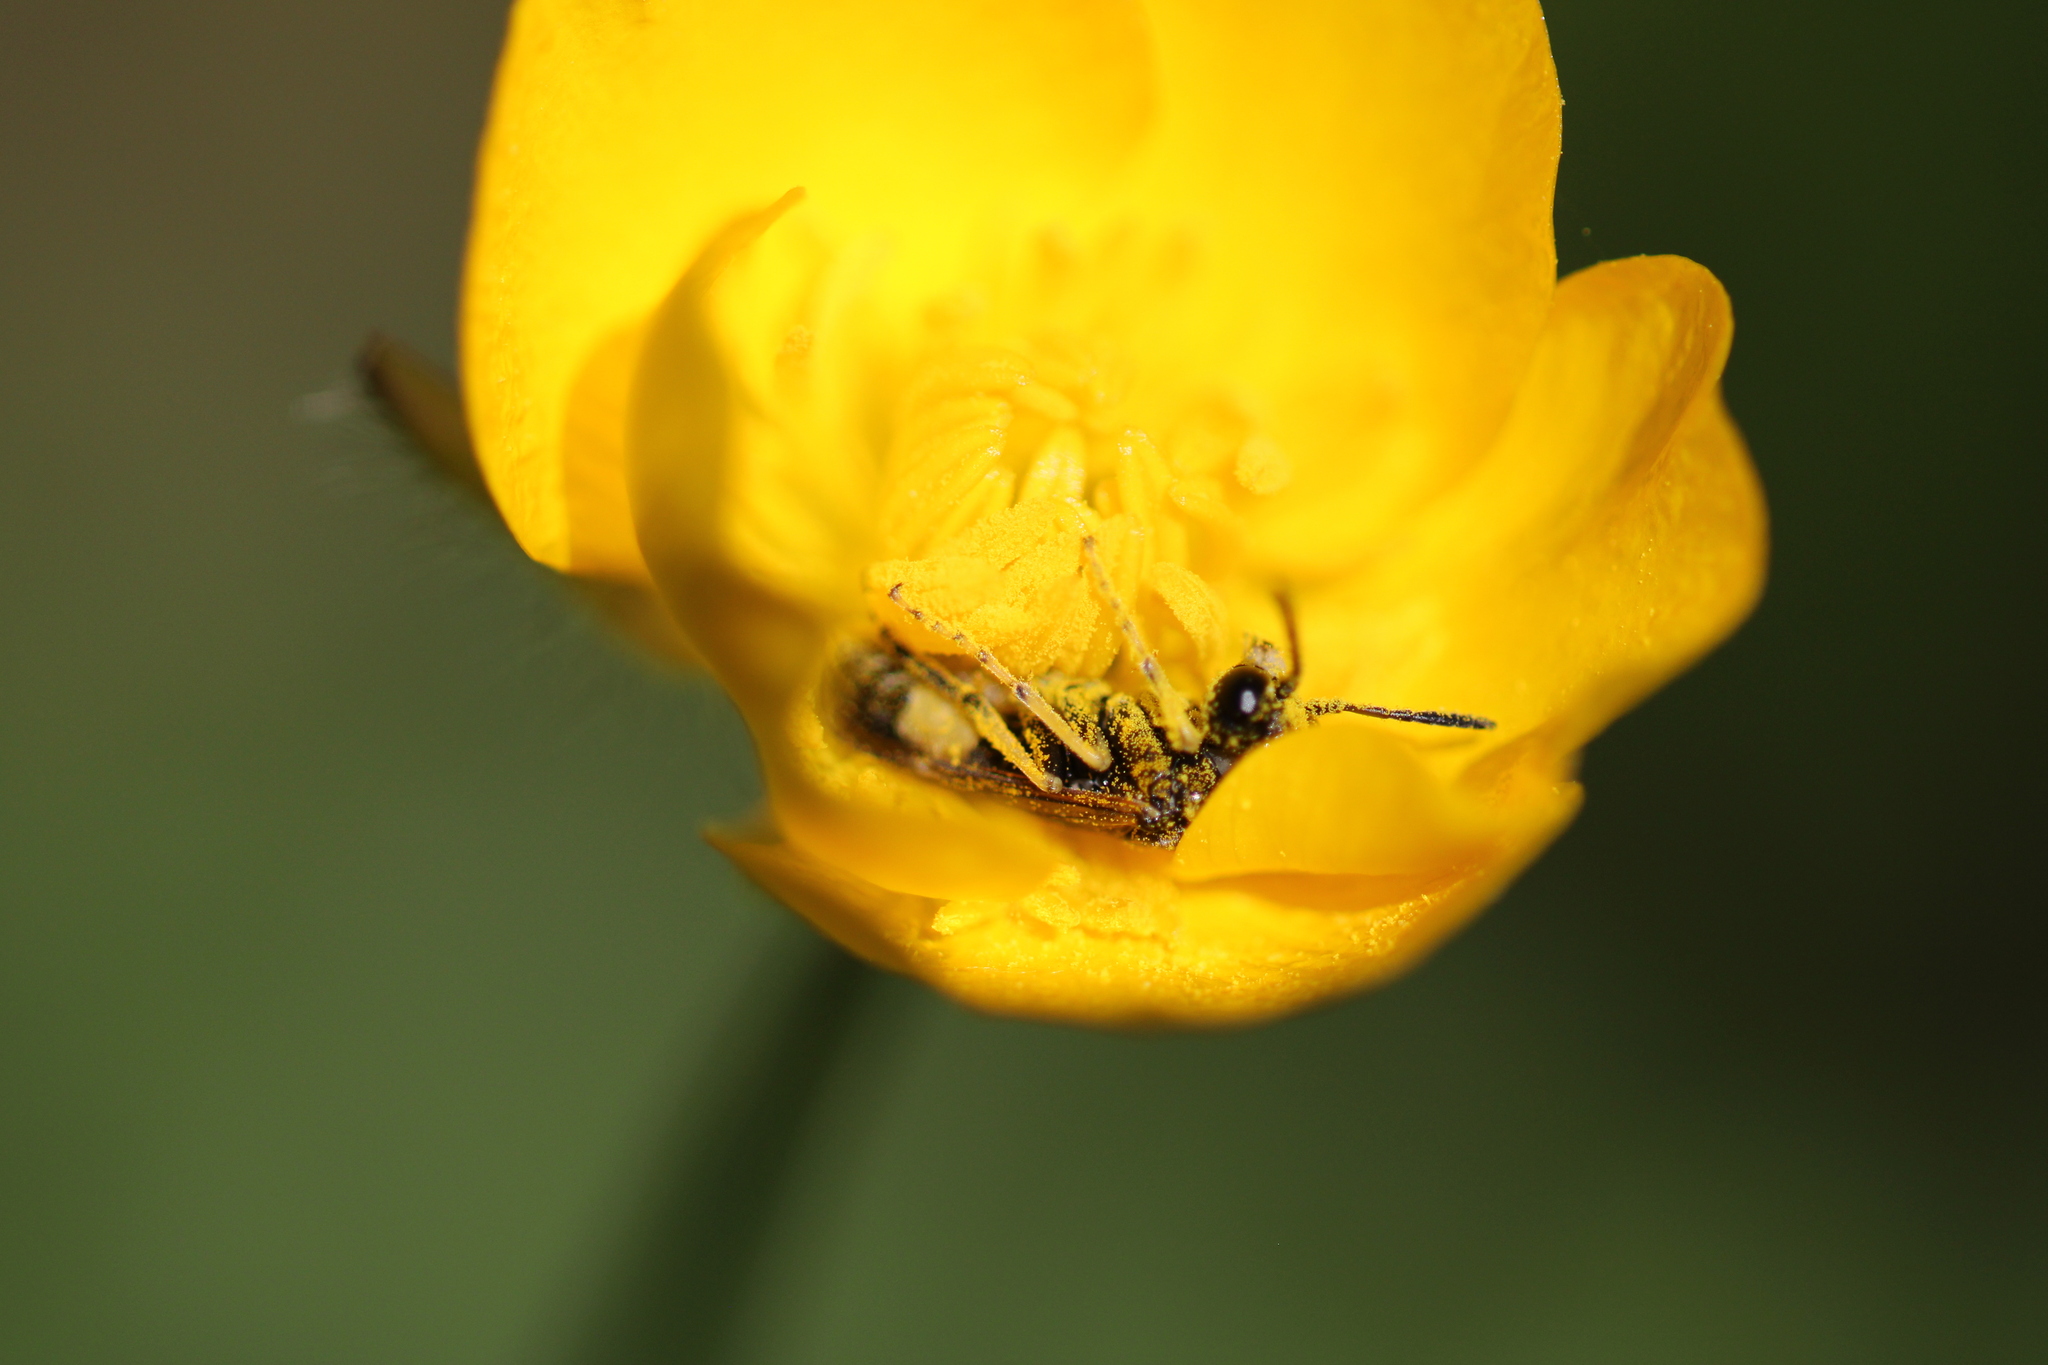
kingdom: Animalia
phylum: Arthropoda
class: Insecta
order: Hymenoptera
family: Tenthredinidae
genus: Paratenthredo
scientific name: Paratenthredo frauenfeldii
